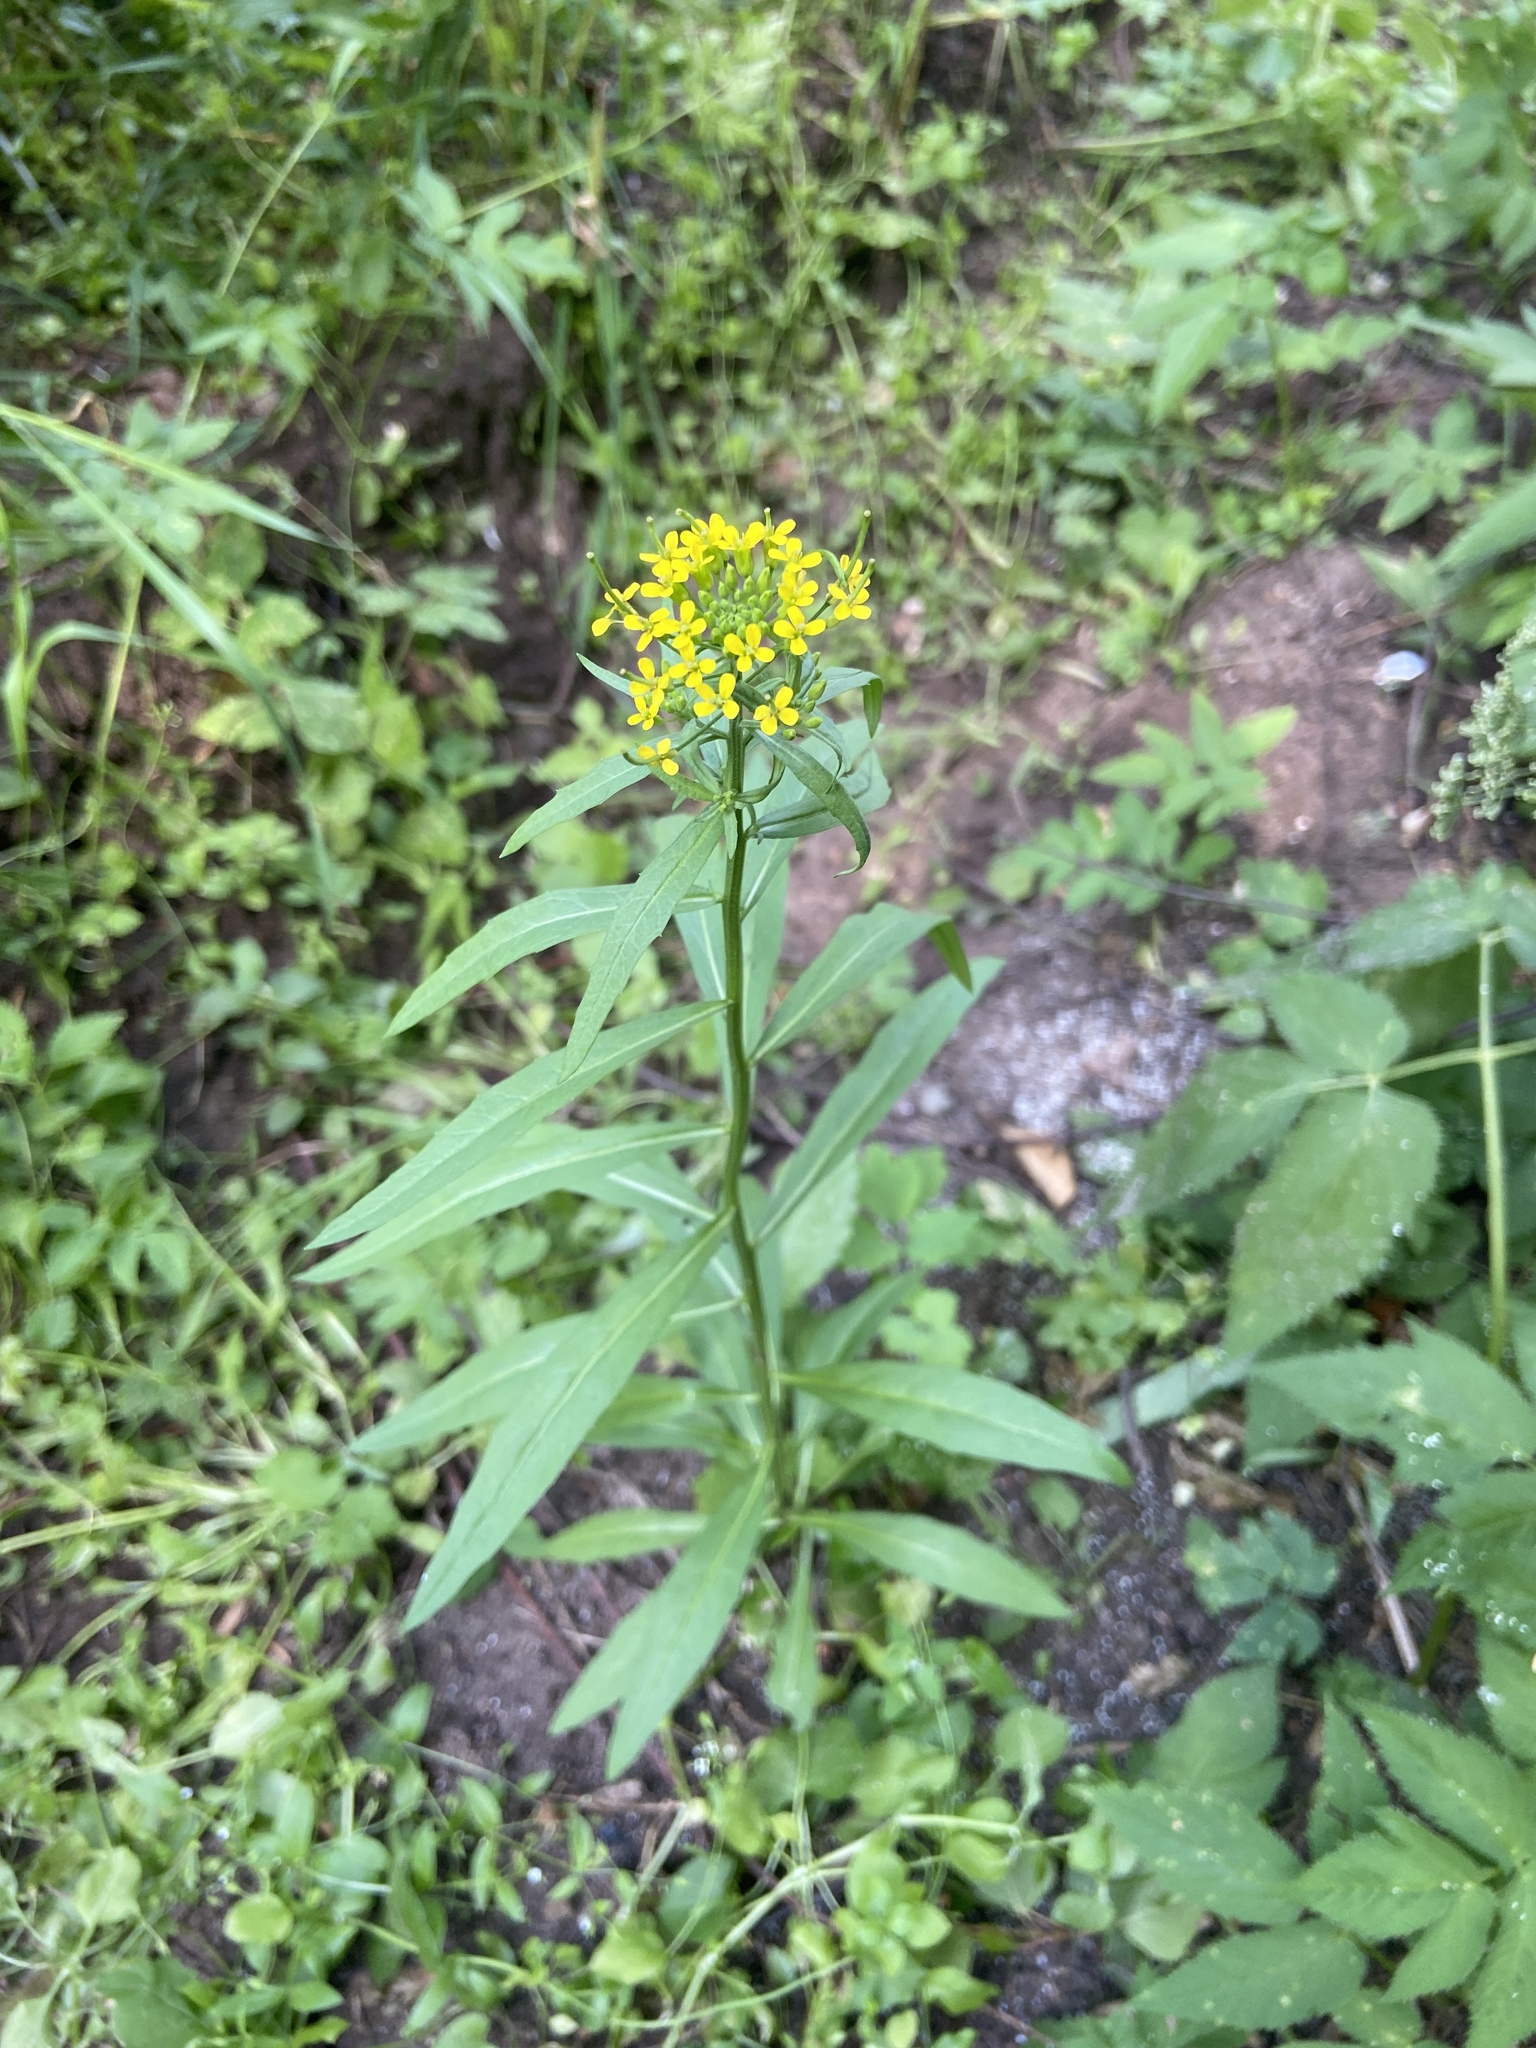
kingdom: Plantae
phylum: Tracheophyta
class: Magnoliopsida
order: Brassicales
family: Brassicaceae
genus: Erysimum
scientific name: Erysimum cheiranthoides
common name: Treacle mustard
